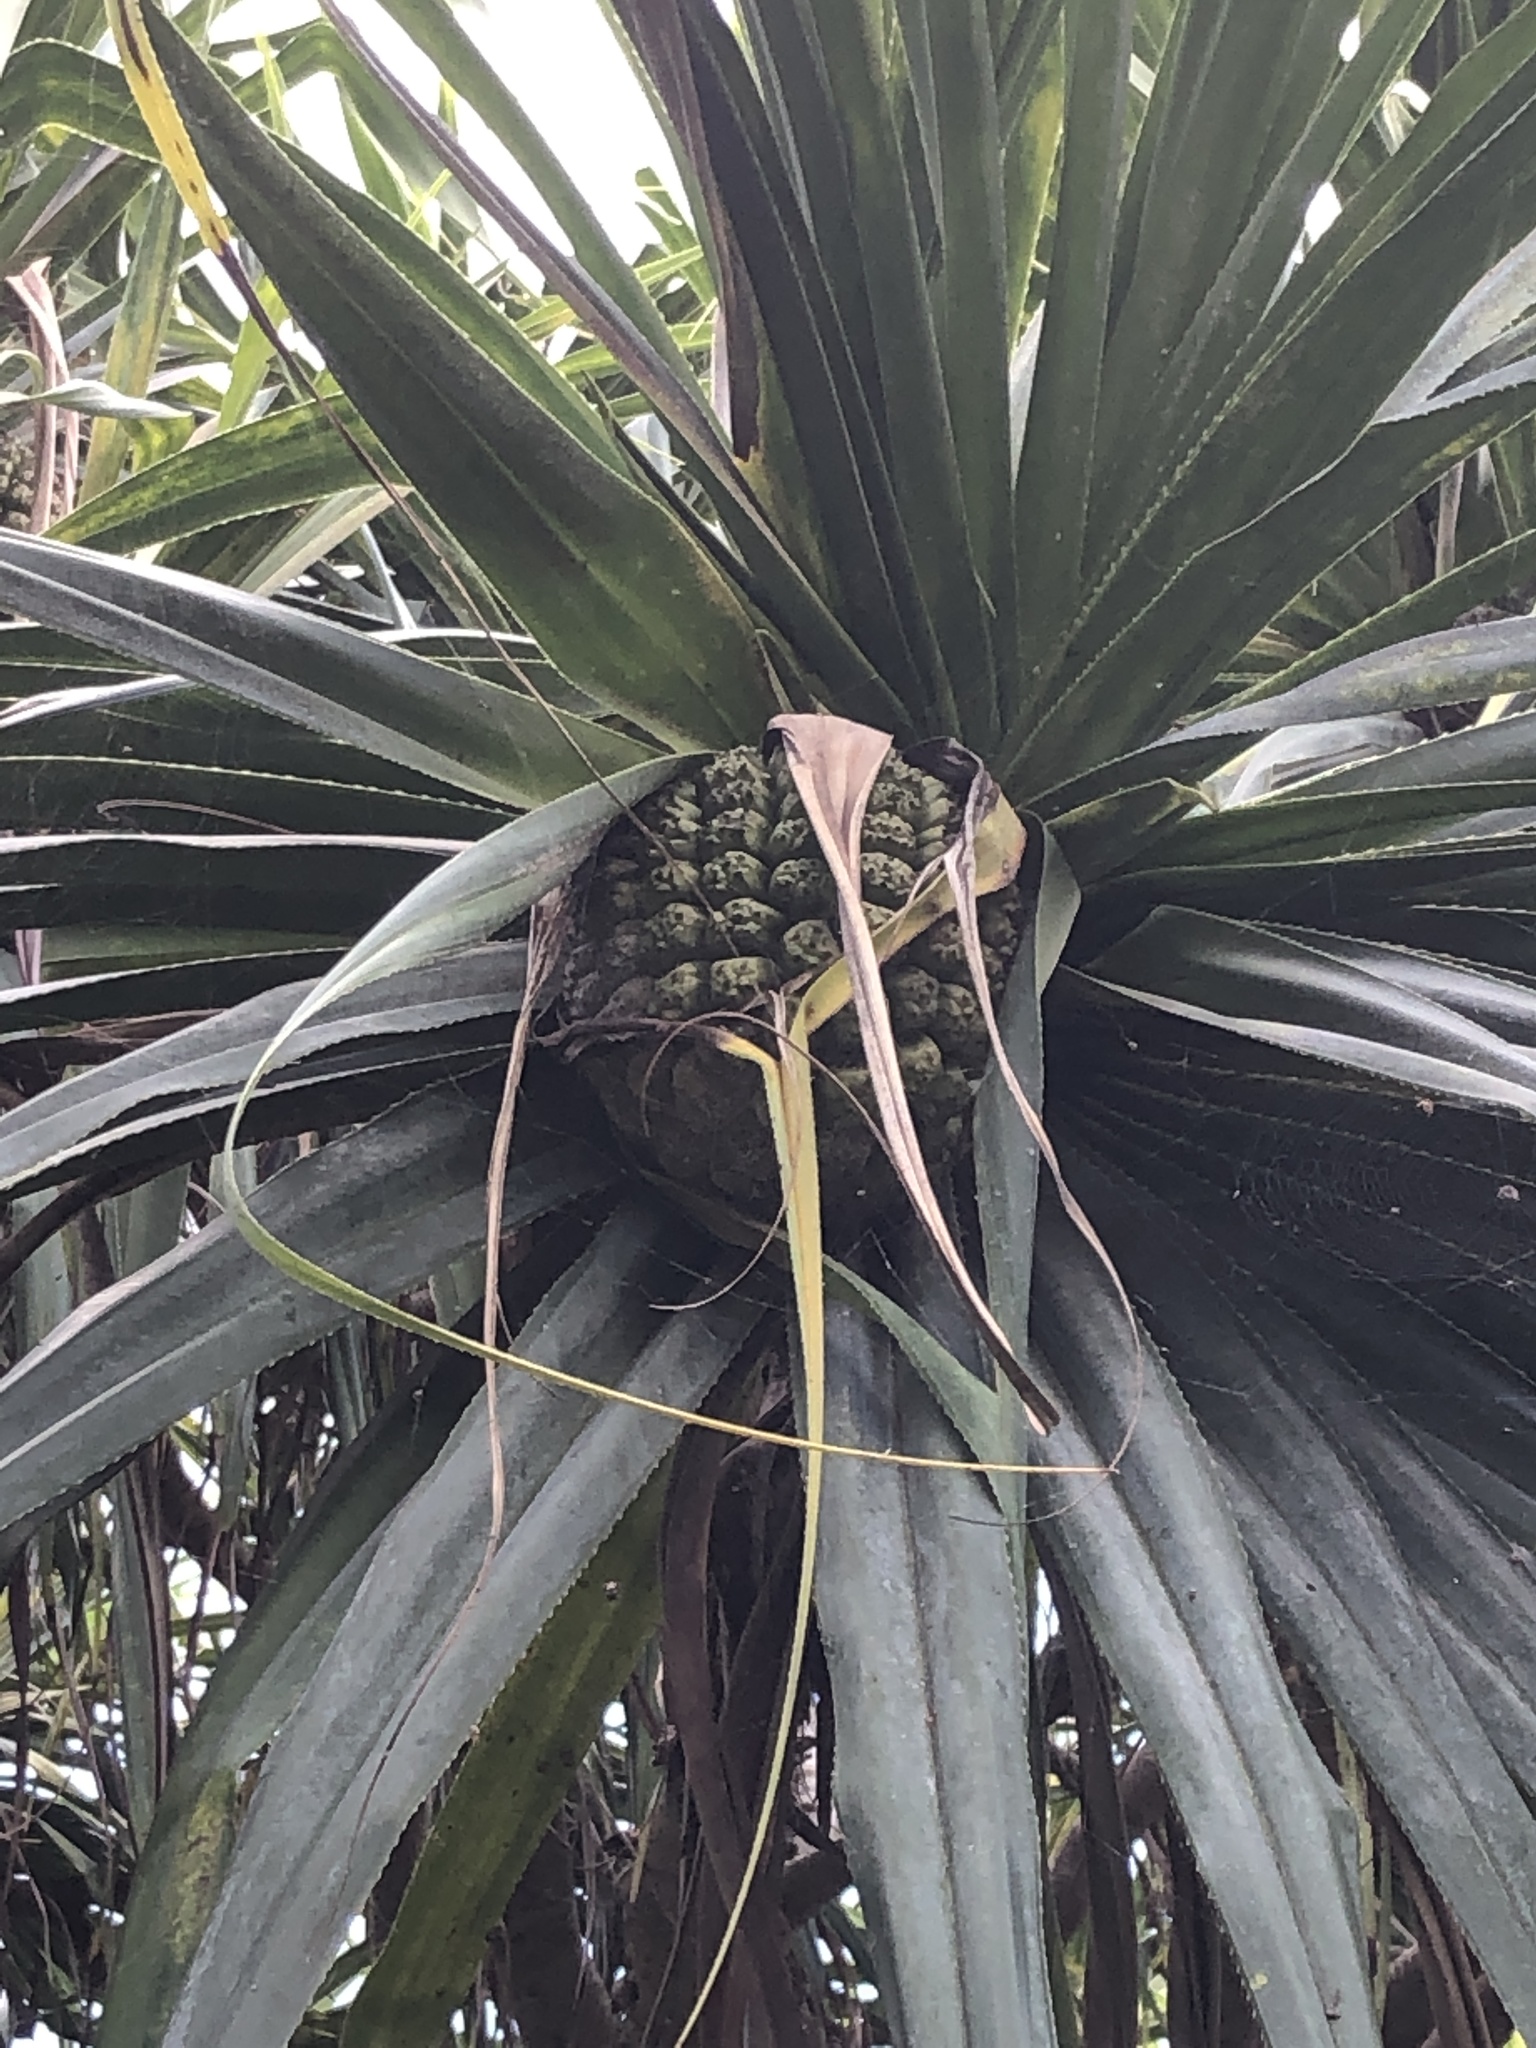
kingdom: Plantae
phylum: Tracheophyta
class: Liliopsida
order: Pandanales
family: Pandanaceae
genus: Pandanus
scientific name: Pandanus tectorius
